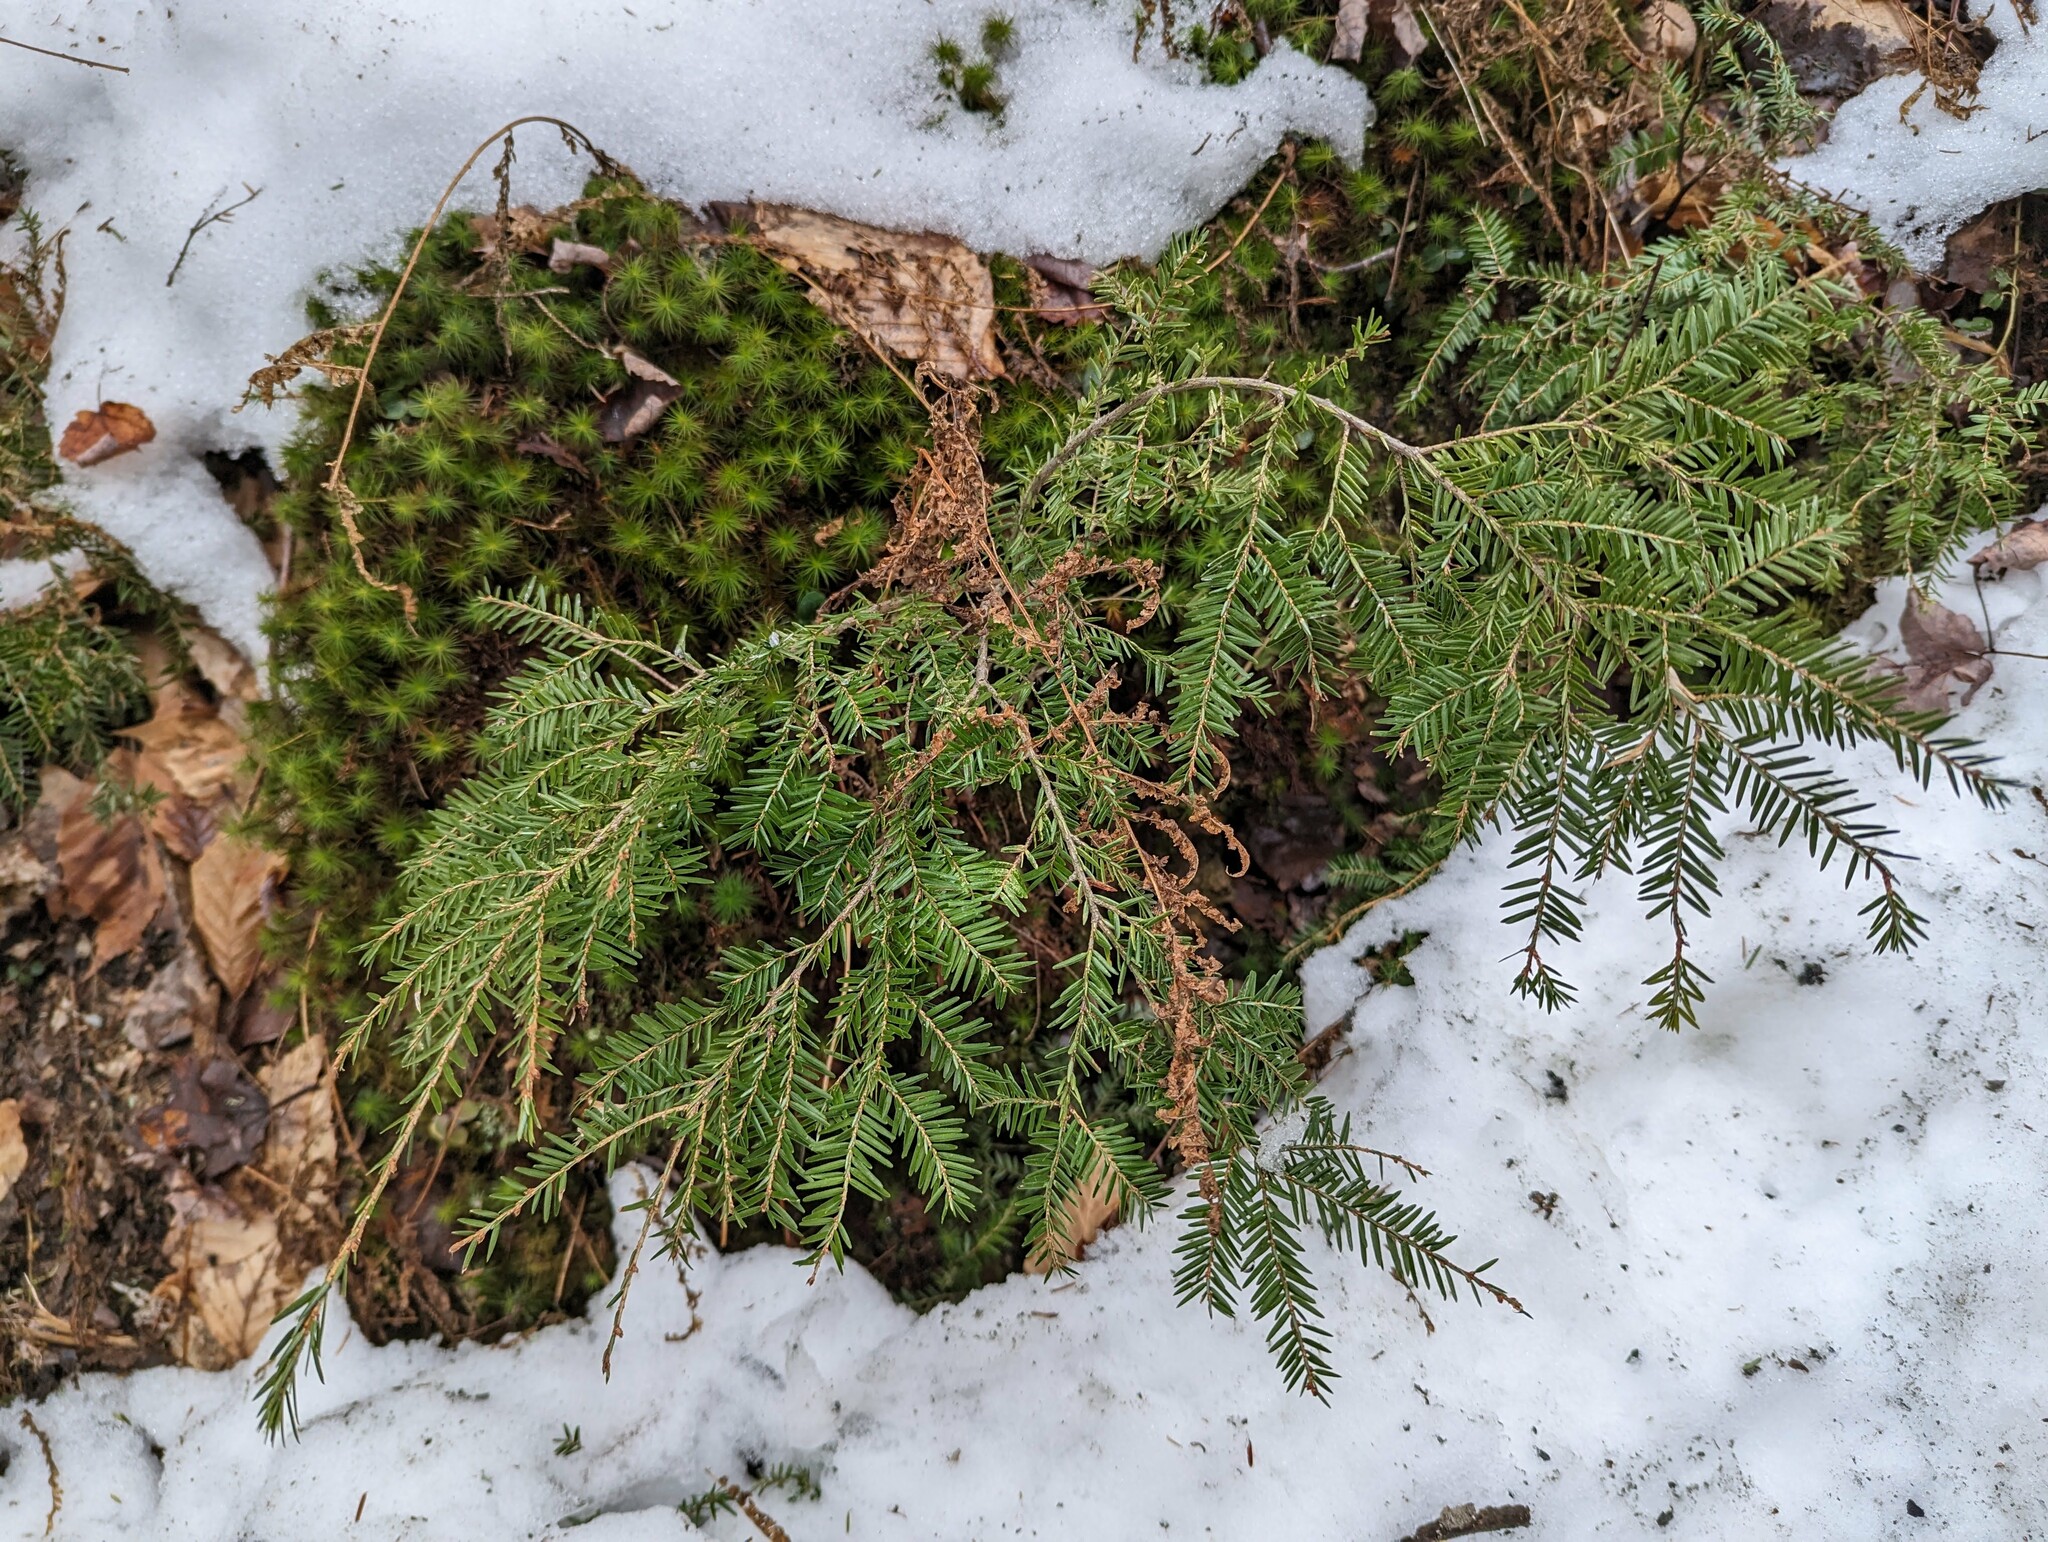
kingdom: Plantae
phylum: Tracheophyta
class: Pinopsida
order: Pinales
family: Pinaceae
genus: Tsuga
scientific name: Tsuga canadensis
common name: Eastern hemlock
